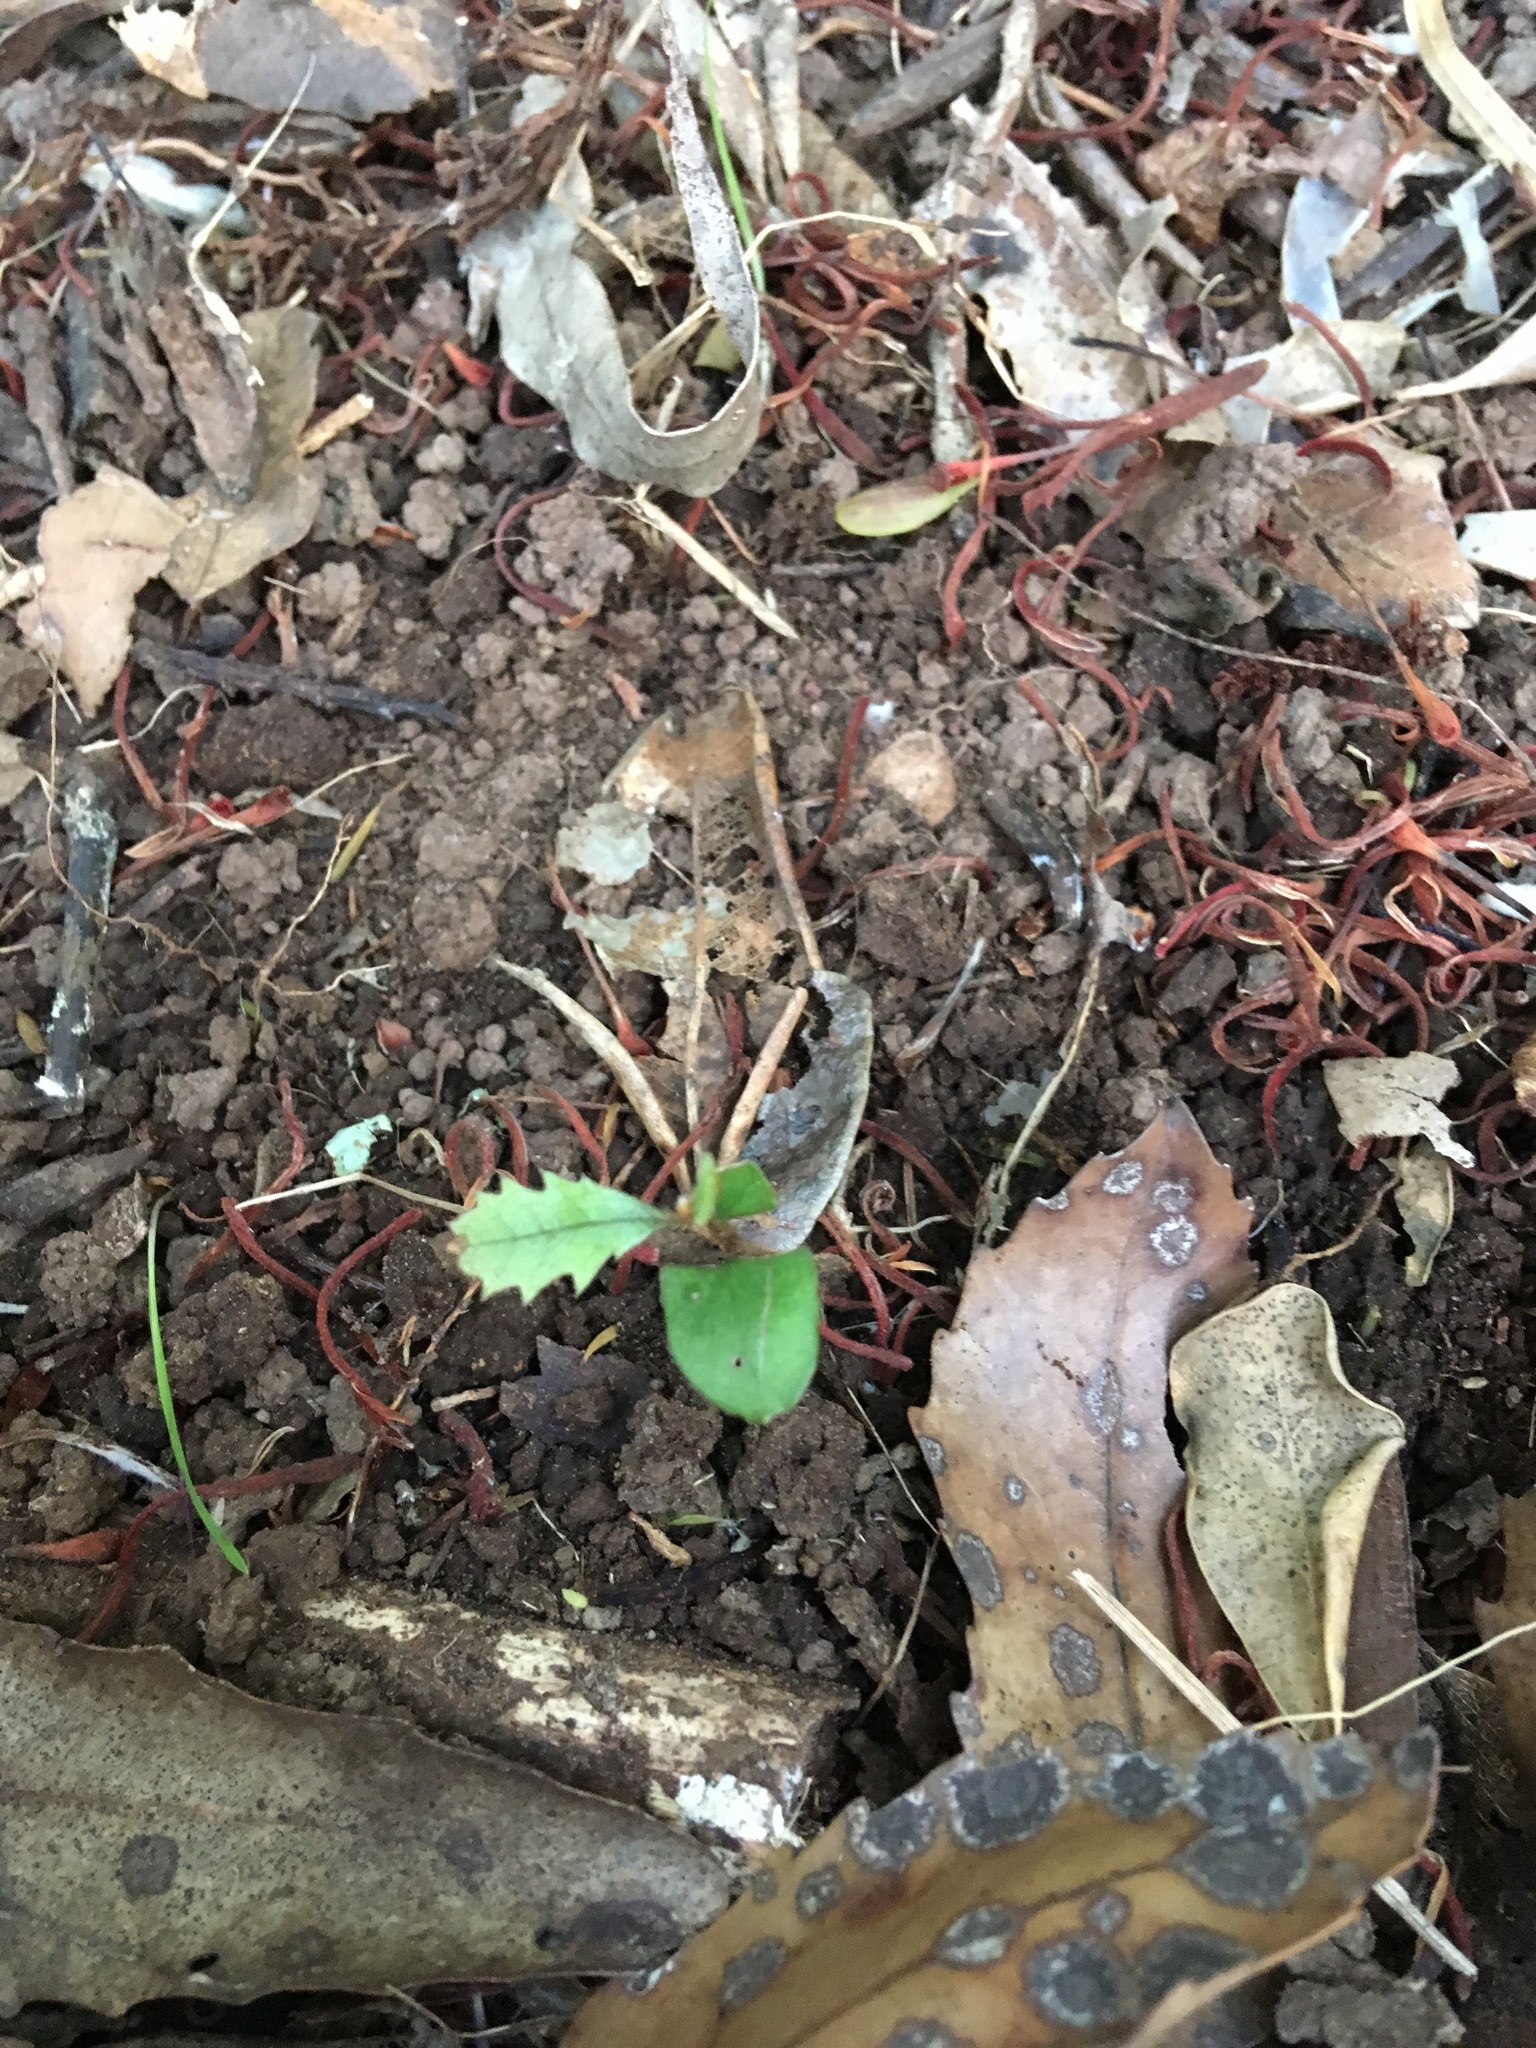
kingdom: Plantae
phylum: Tracheophyta
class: Magnoliopsida
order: Proteales
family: Proteaceae
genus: Knightia
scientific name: Knightia excelsa
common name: New zealand-honeysuckle
